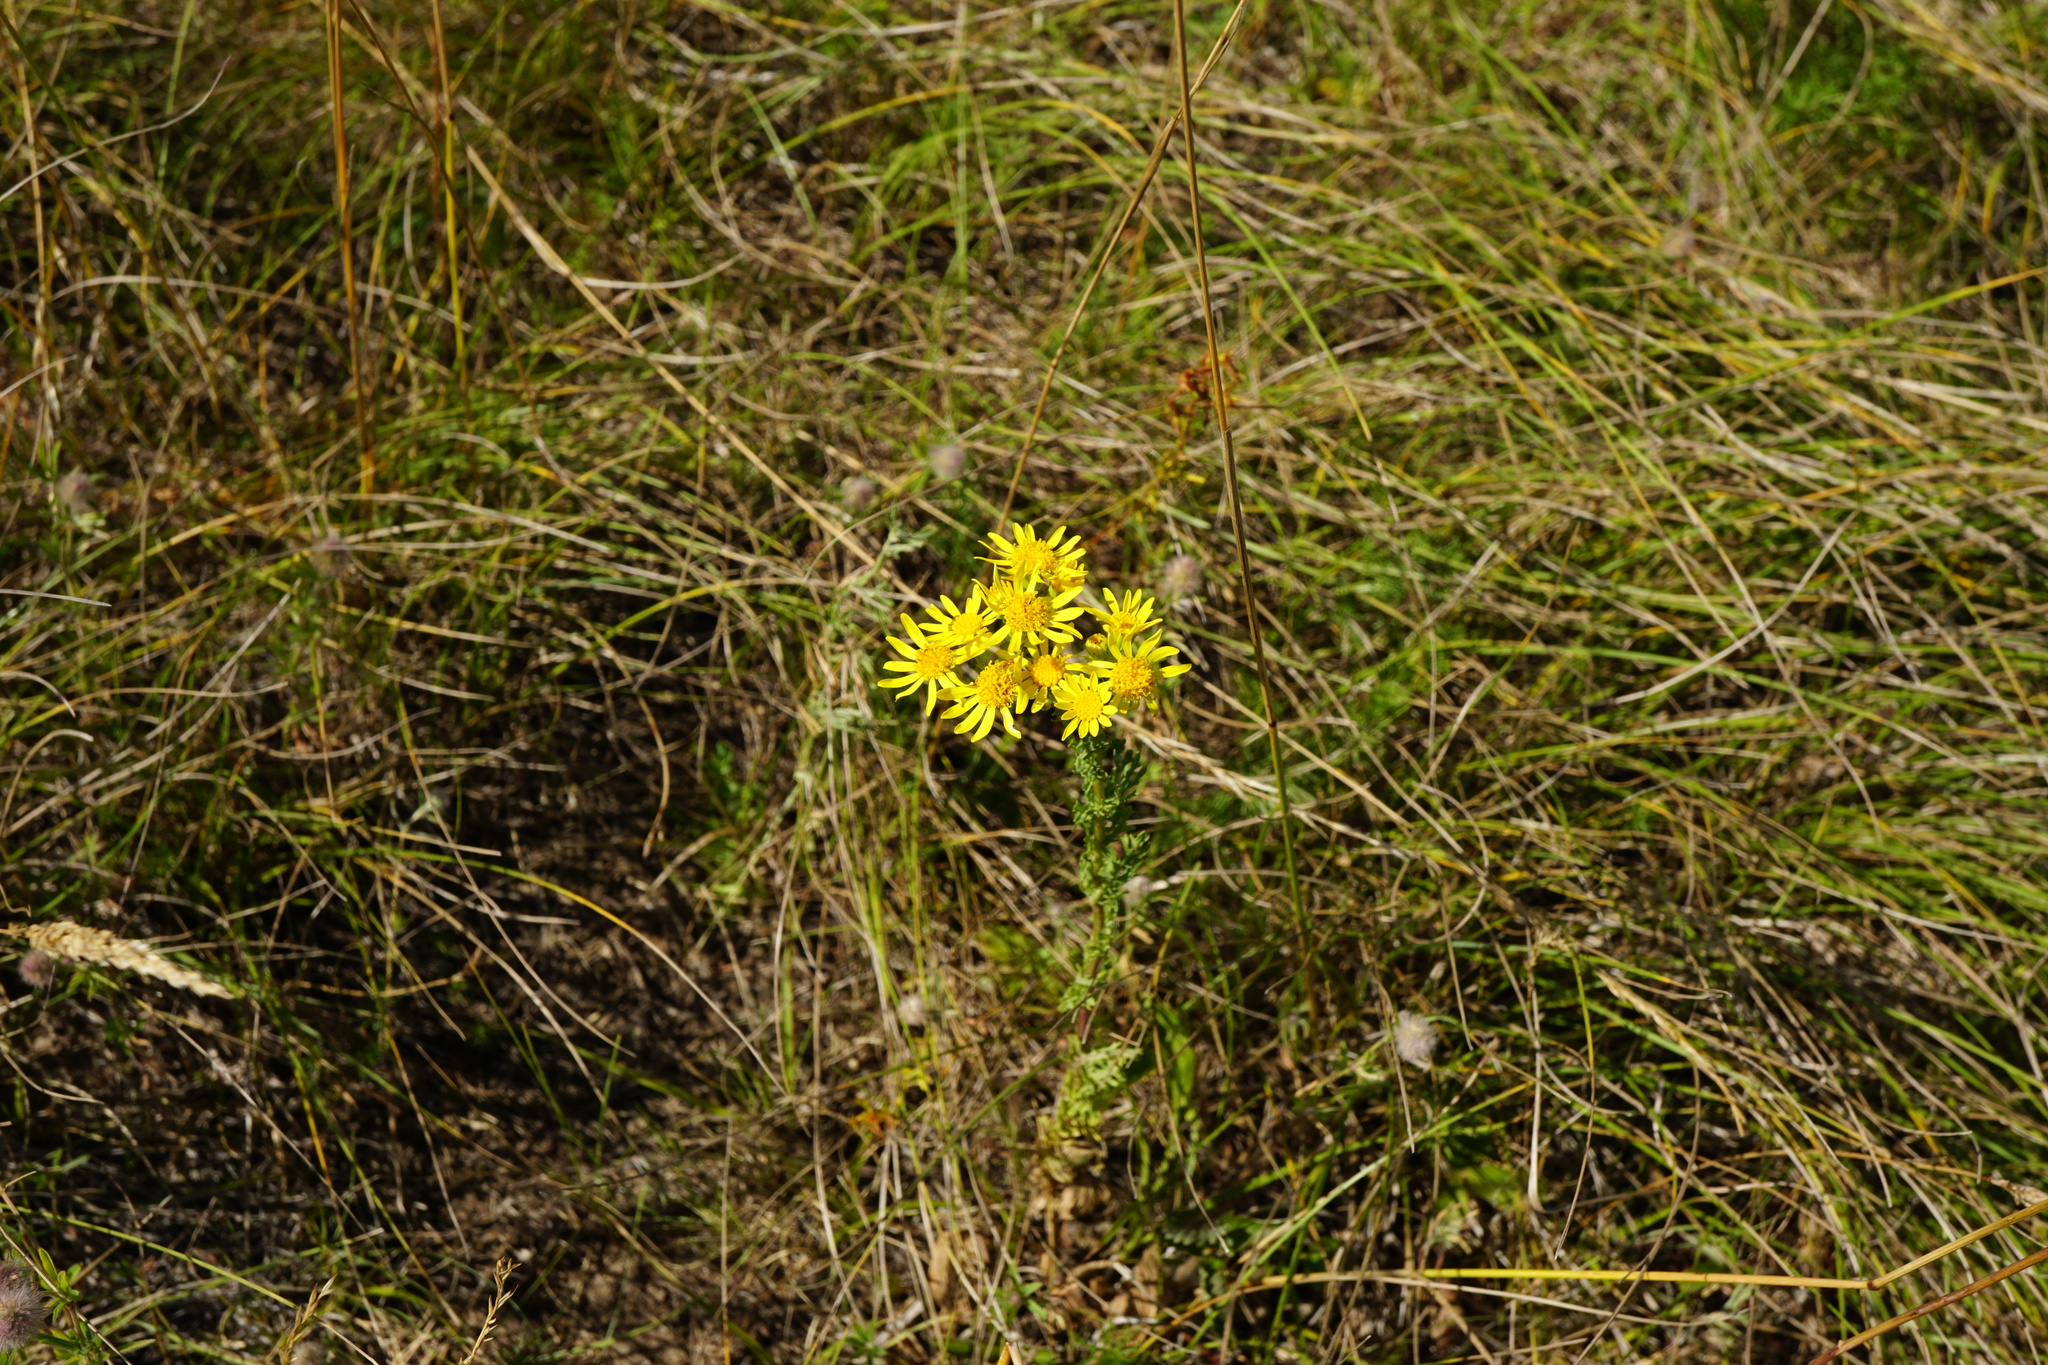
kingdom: Plantae
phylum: Tracheophyta
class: Magnoliopsida
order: Asterales
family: Asteraceae
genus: Jacobaea
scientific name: Jacobaea vulgaris
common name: Stinking willie
